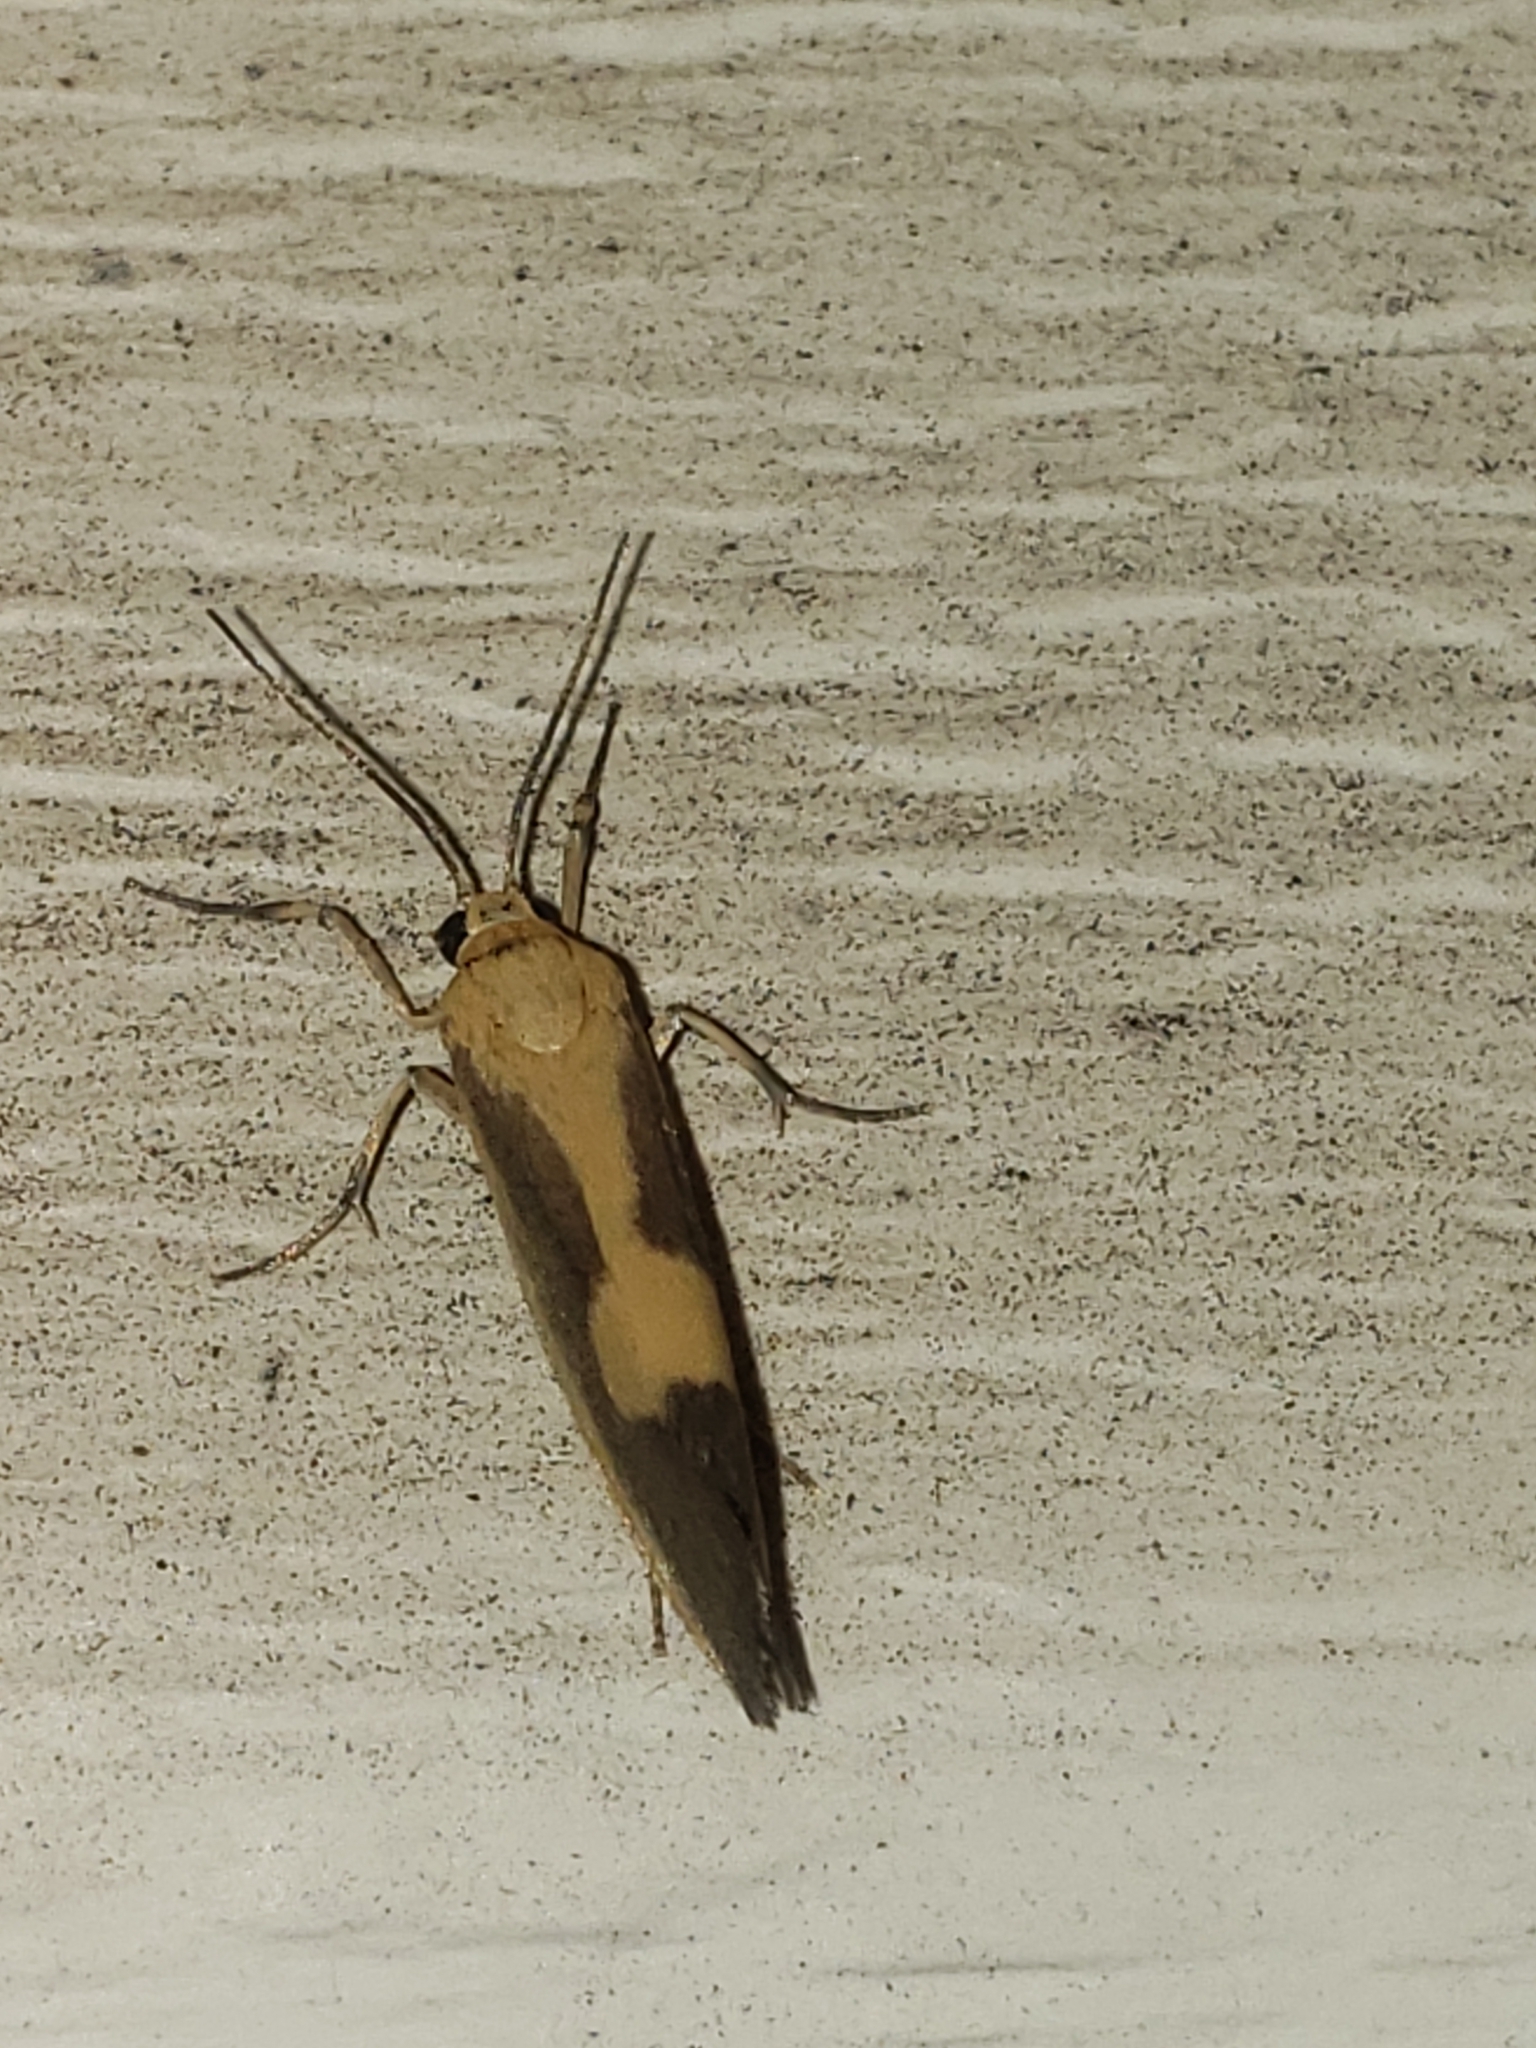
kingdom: Animalia
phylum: Arthropoda
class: Insecta
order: Lepidoptera
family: Erebidae
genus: Cisthene
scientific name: Cisthene plumbea
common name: Lead colored lichen moth
